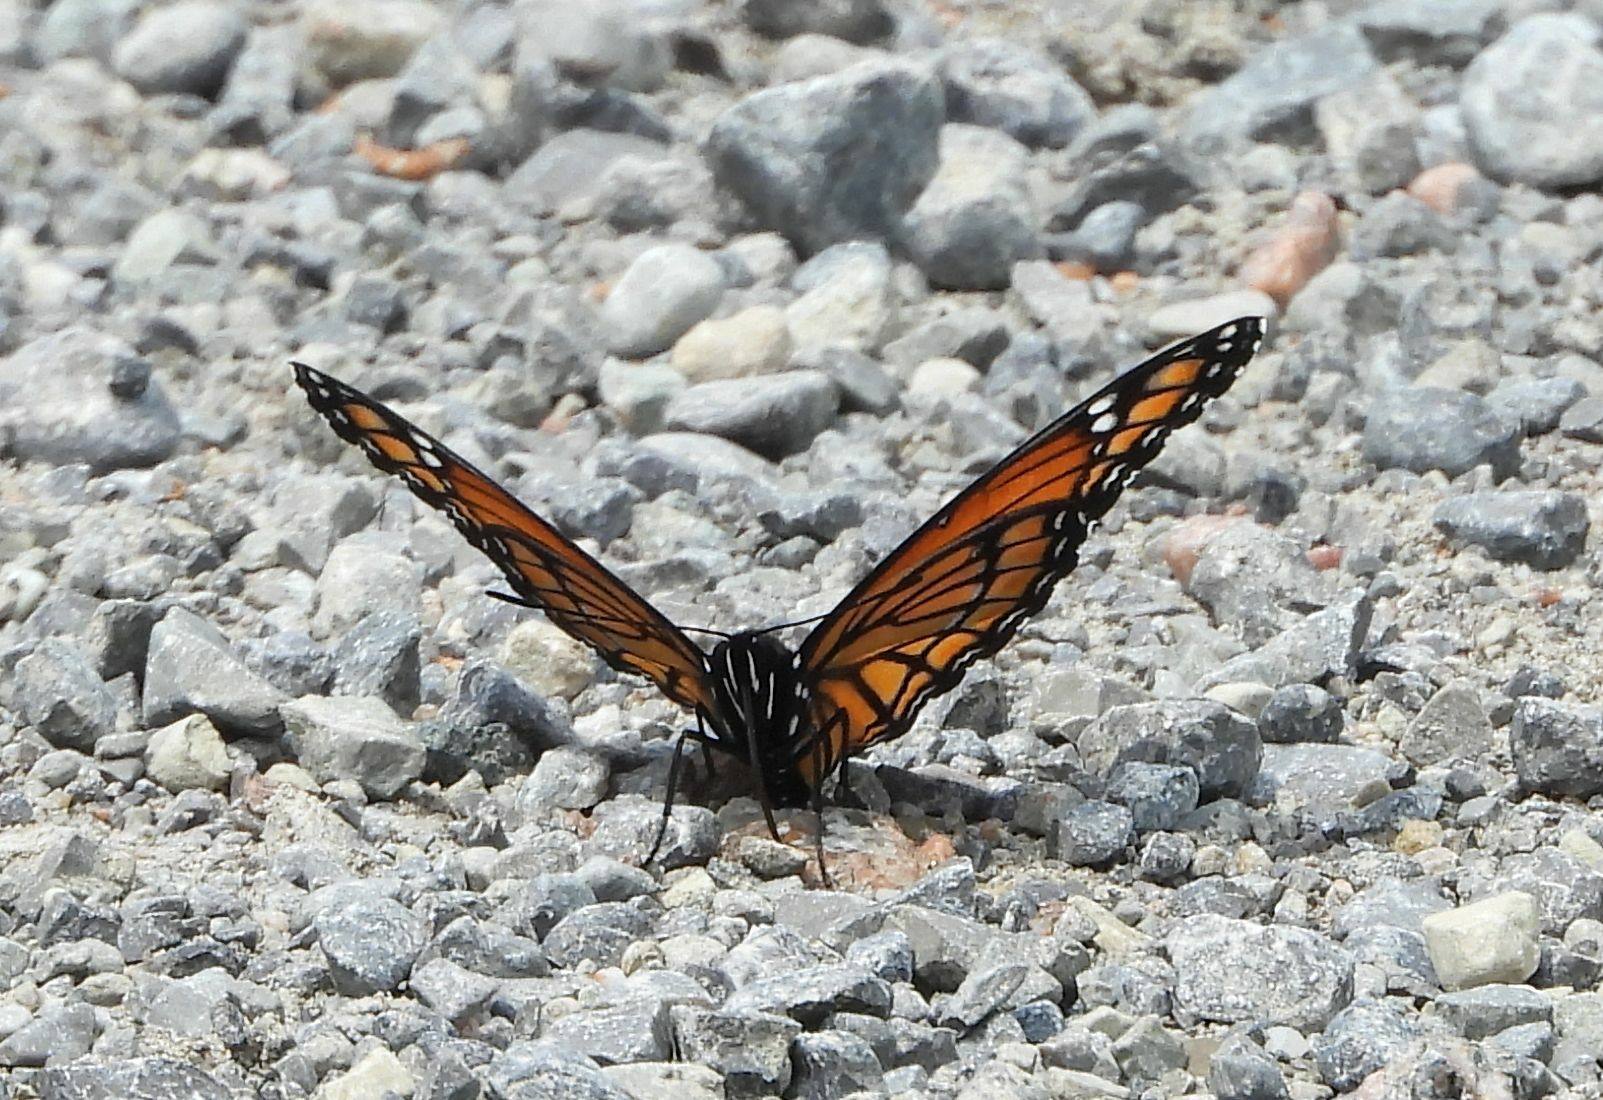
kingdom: Animalia
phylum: Arthropoda
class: Insecta
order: Lepidoptera
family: Nymphalidae
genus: Limenitis
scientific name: Limenitis archippus
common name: Viceroy
